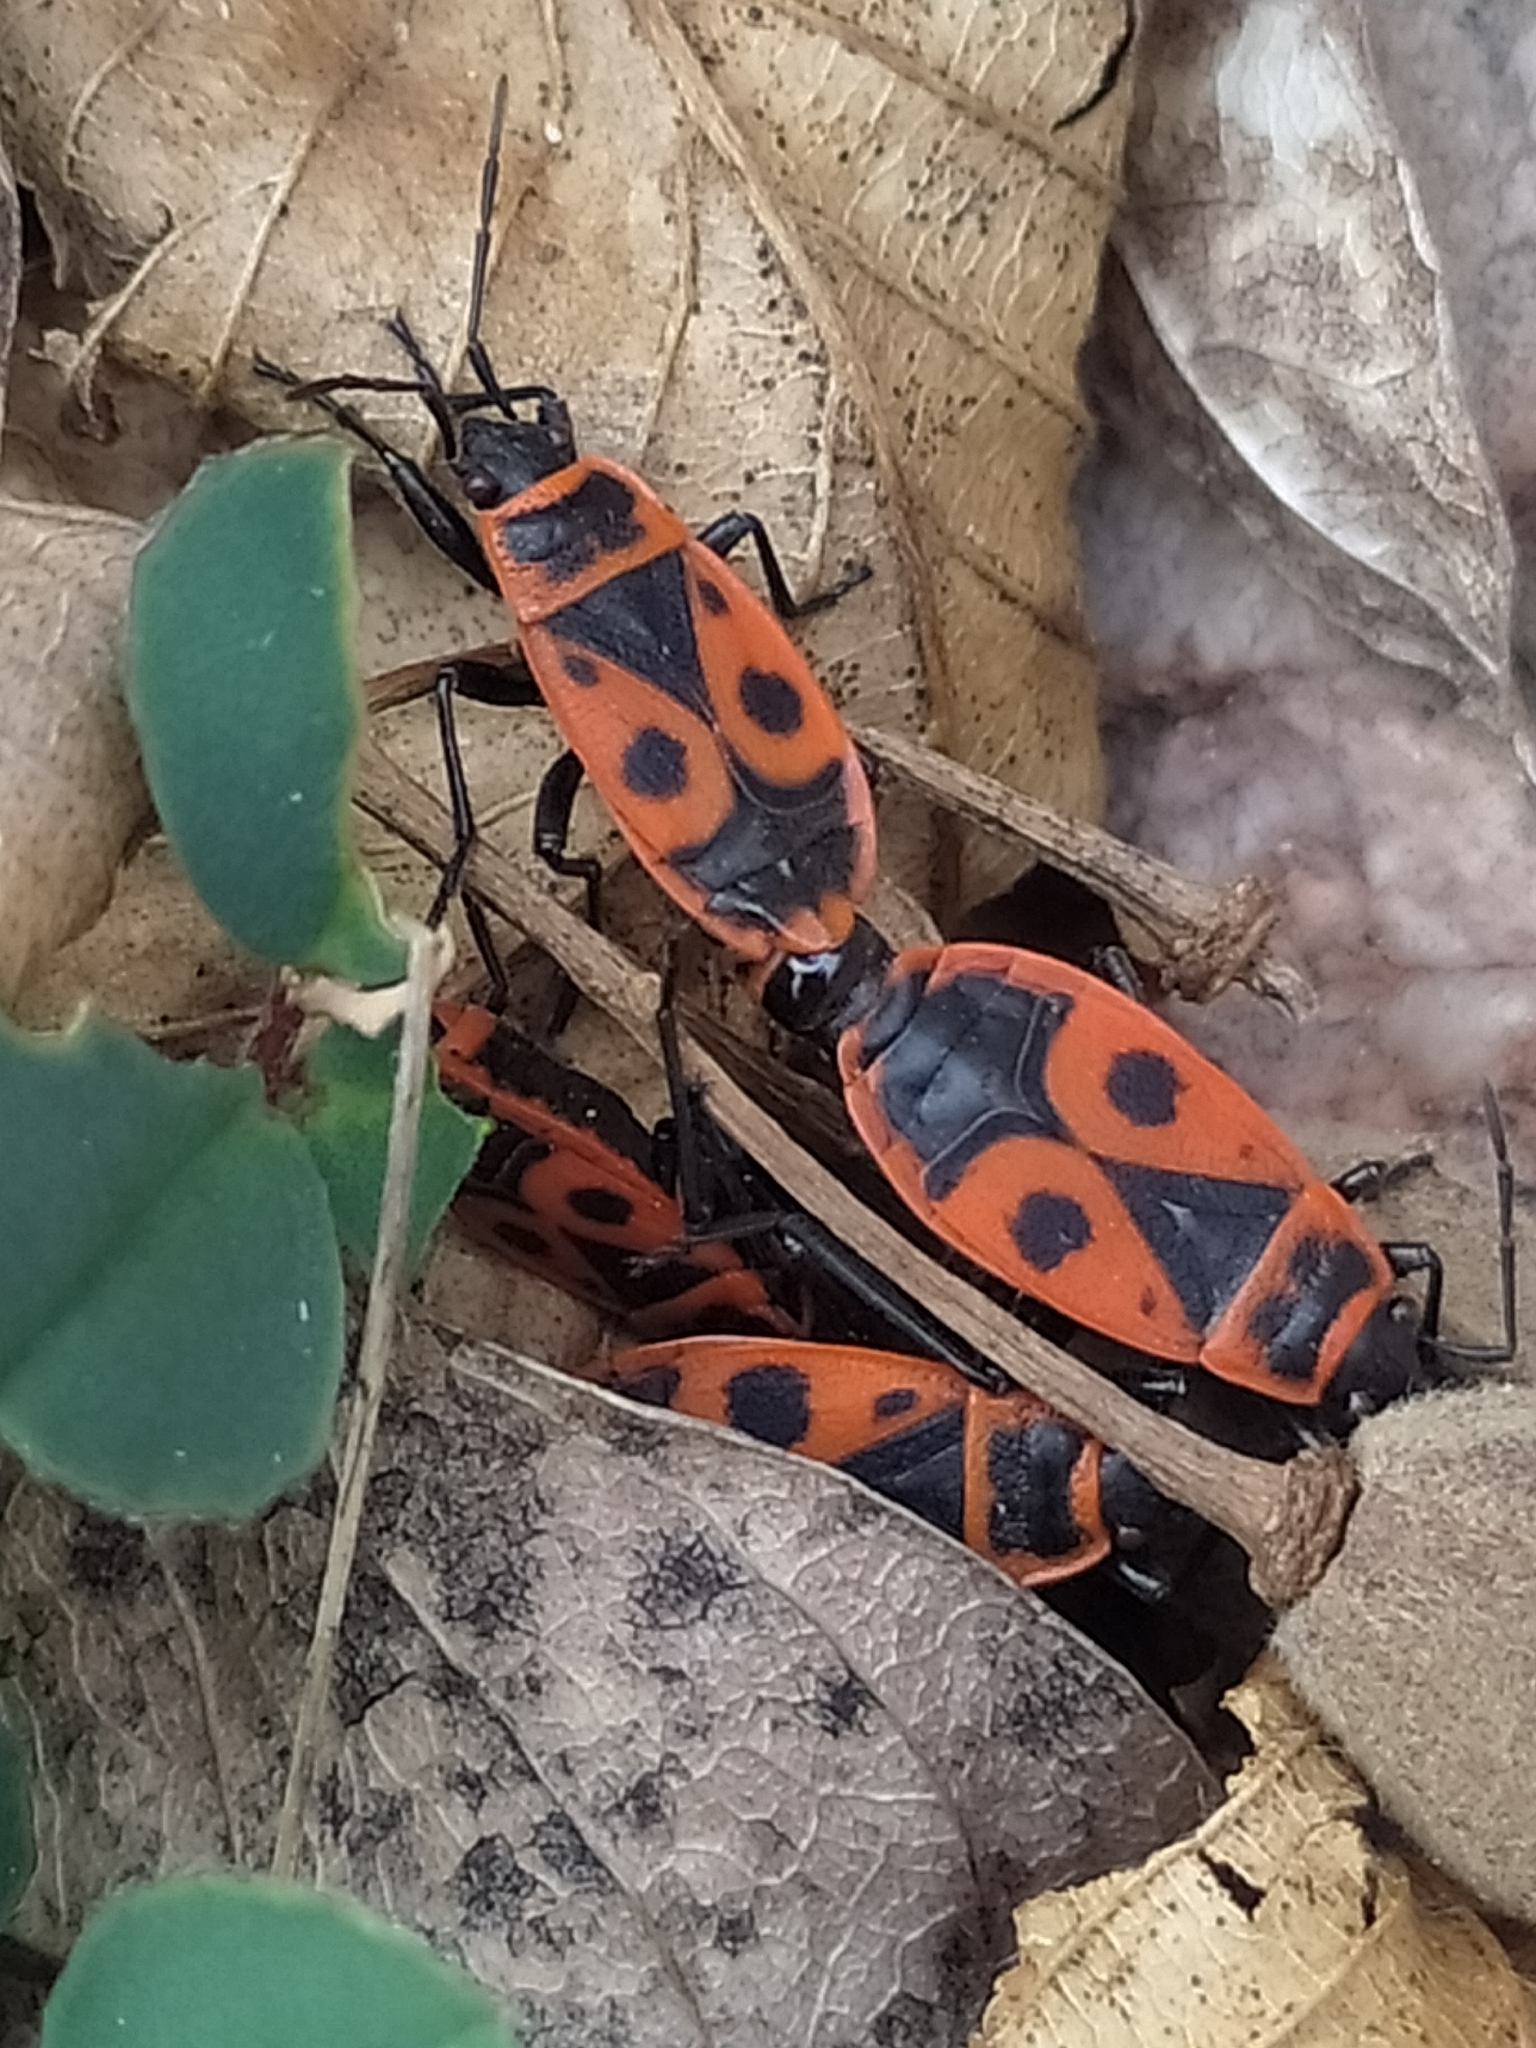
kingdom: Animalia
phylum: Arthropoda
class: Insecta
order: Hemiptera
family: Pyrrhocoridae
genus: Pyrrhocoris
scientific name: Pyrrhocoris apterus
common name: Firebug
